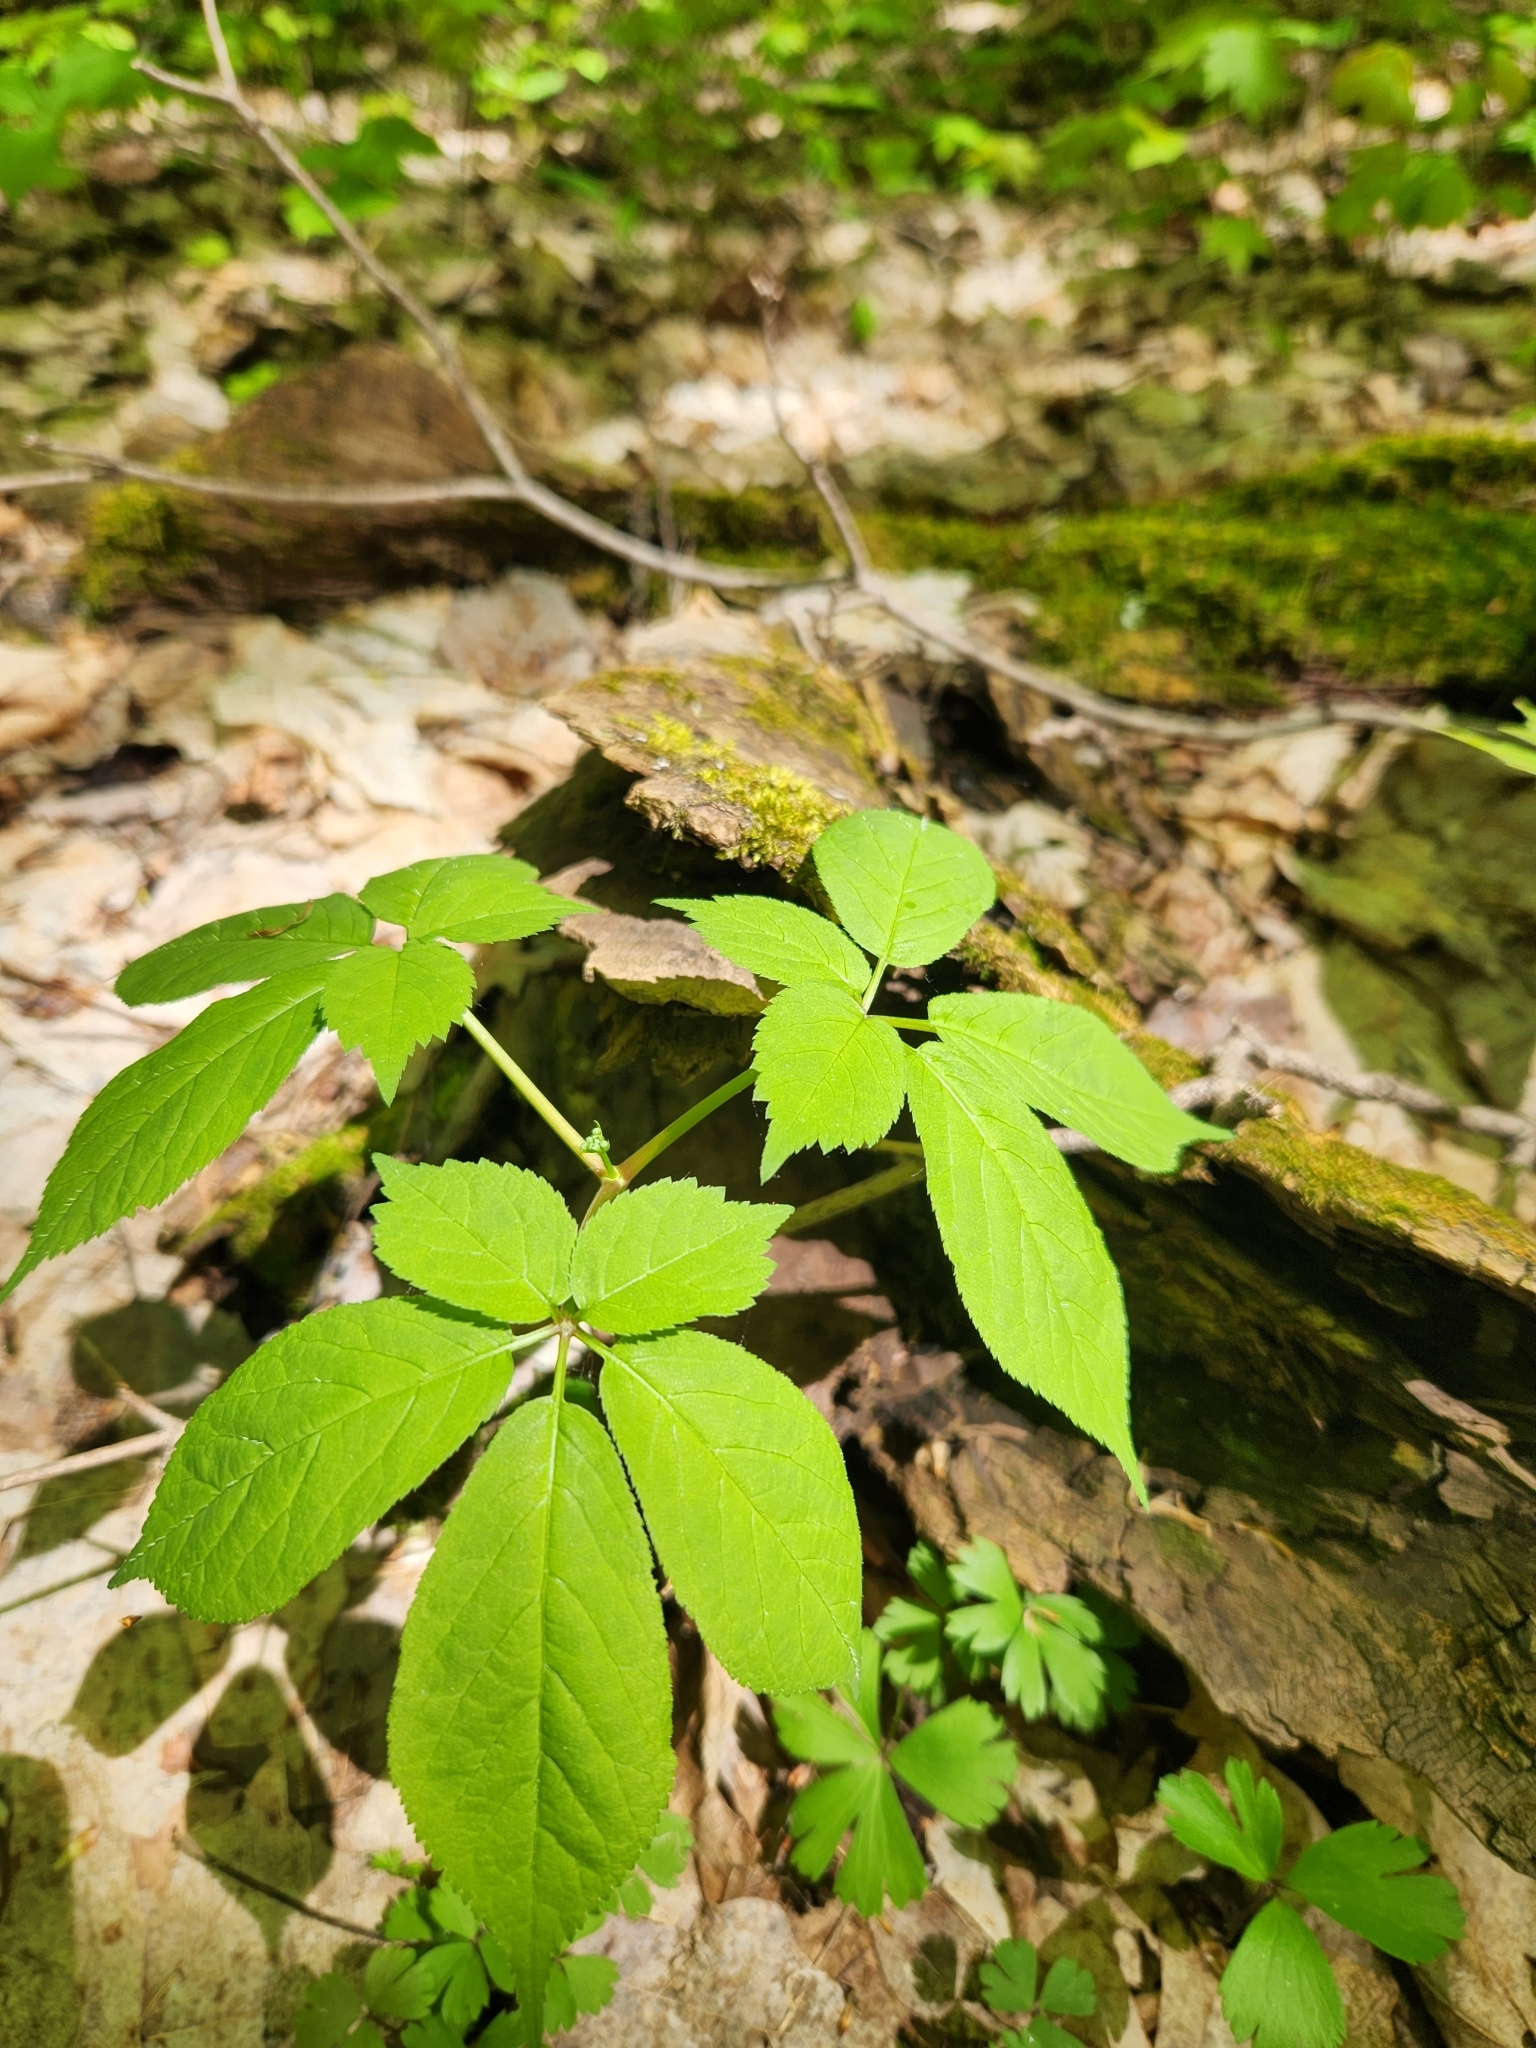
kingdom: Plantae
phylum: Tracheophyta
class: Magnoliopsida
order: Apiales
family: Araliaceae
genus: Panax
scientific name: Panax quinquefolius
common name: American ginseng
